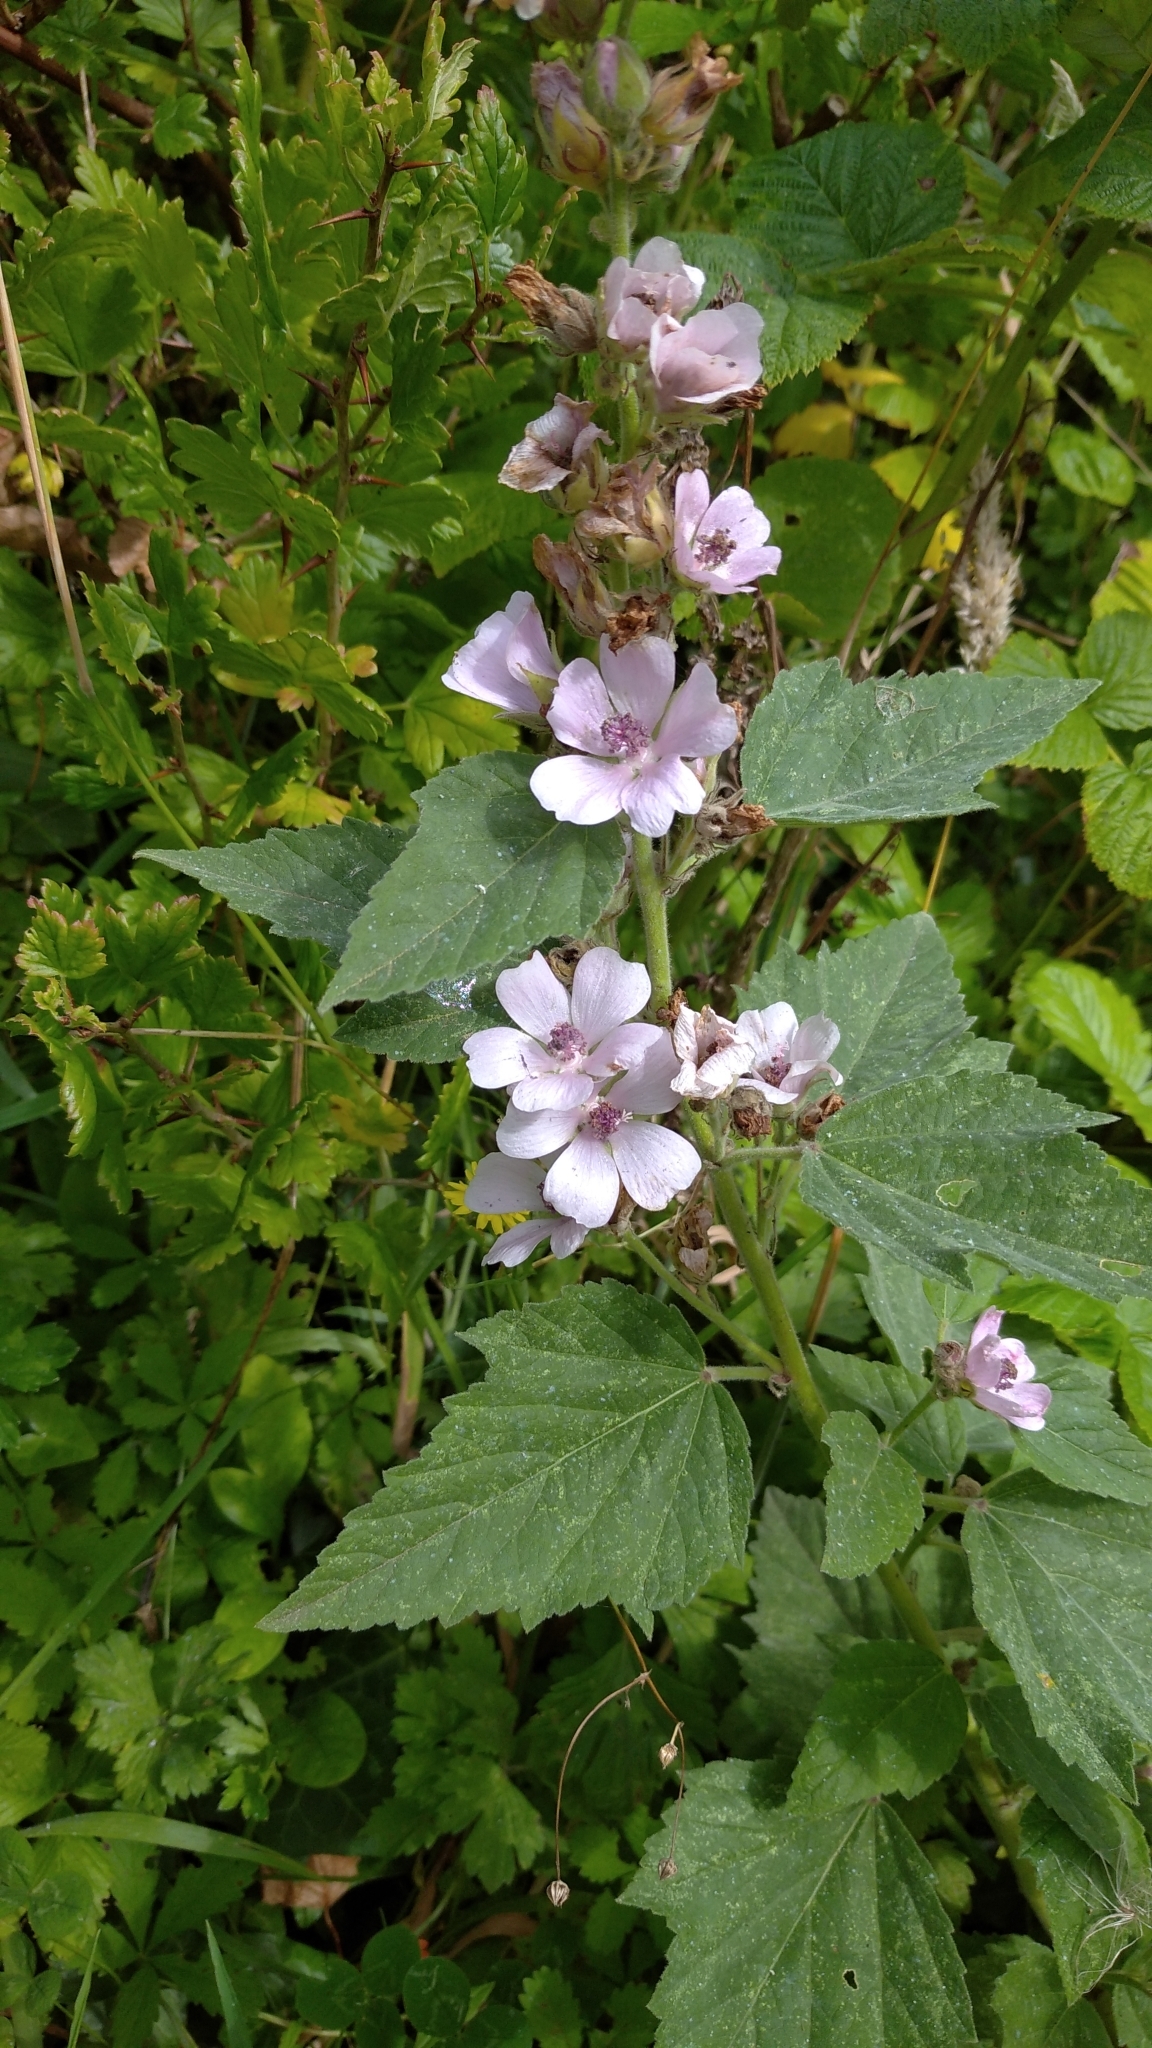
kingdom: Plantae
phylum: Tracheophyta
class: Magnoliopsida
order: Malvales
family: Malvaceae
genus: Althaea
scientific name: Althaea officinalis
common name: Marsh-mallow
